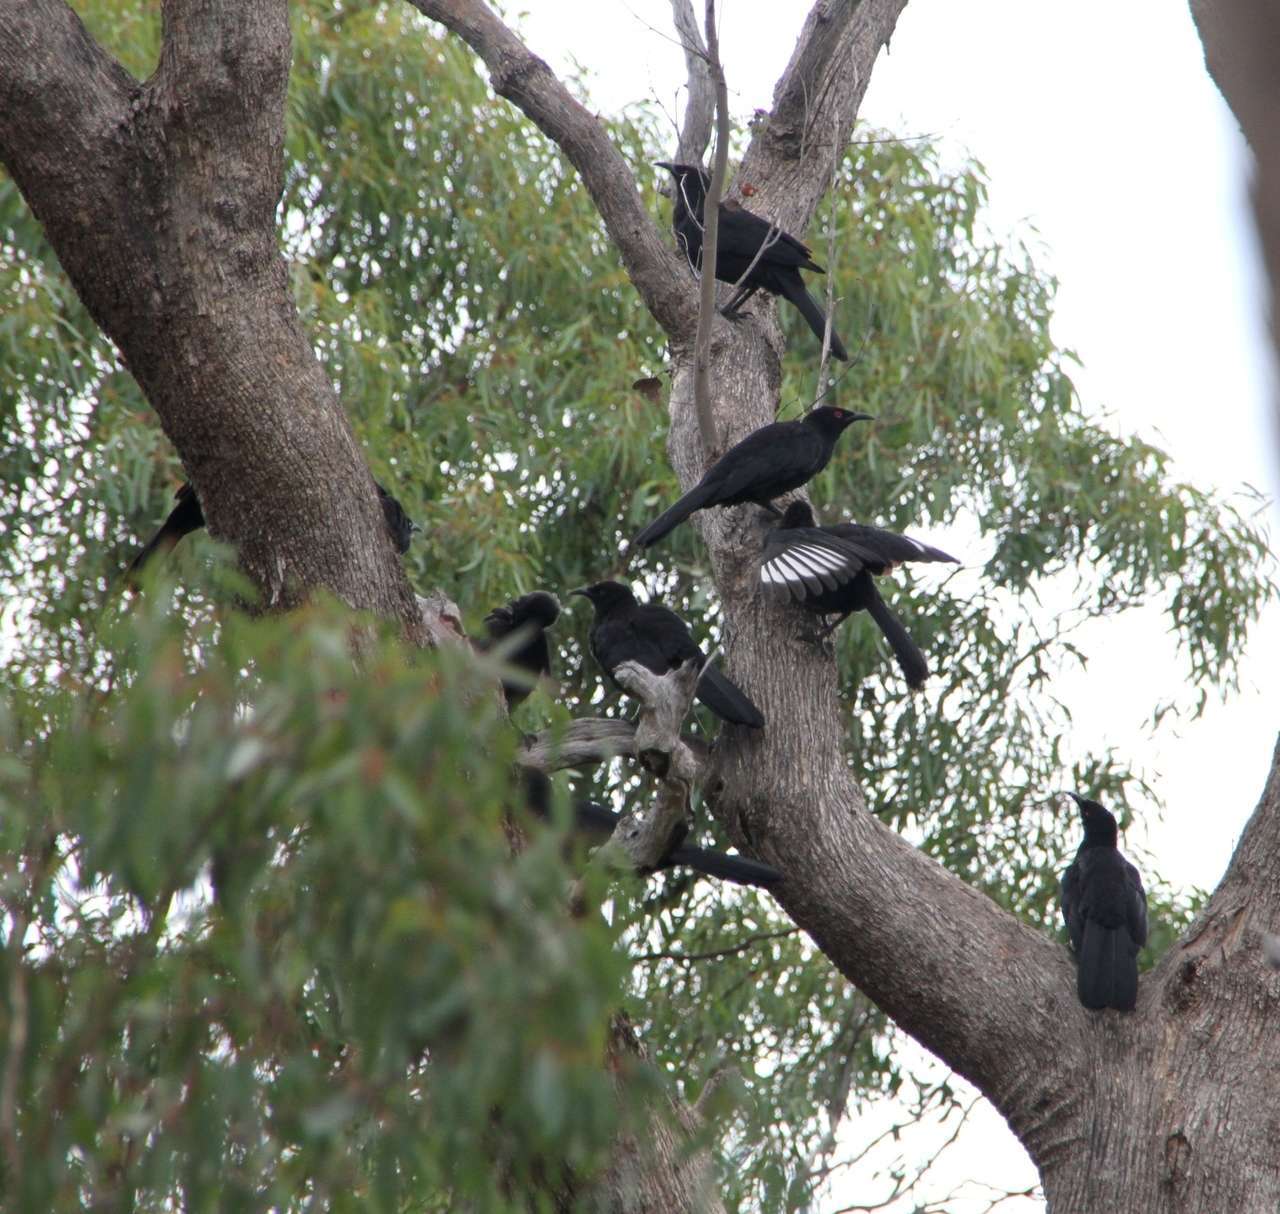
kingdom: Animalia
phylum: Chordata
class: Aves
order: Passeriformes
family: Corcoracidae
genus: Corcorax
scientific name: Corcorax melanoramphos
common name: White-winged chough
